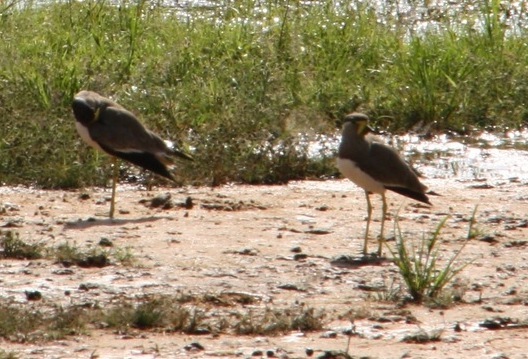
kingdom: Animalia
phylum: Chordata
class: Aves
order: Charadriiformes
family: Charadriidae
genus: Vanellus
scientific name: Vanellus malabaricus
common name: Yellow-wattled lapwing
